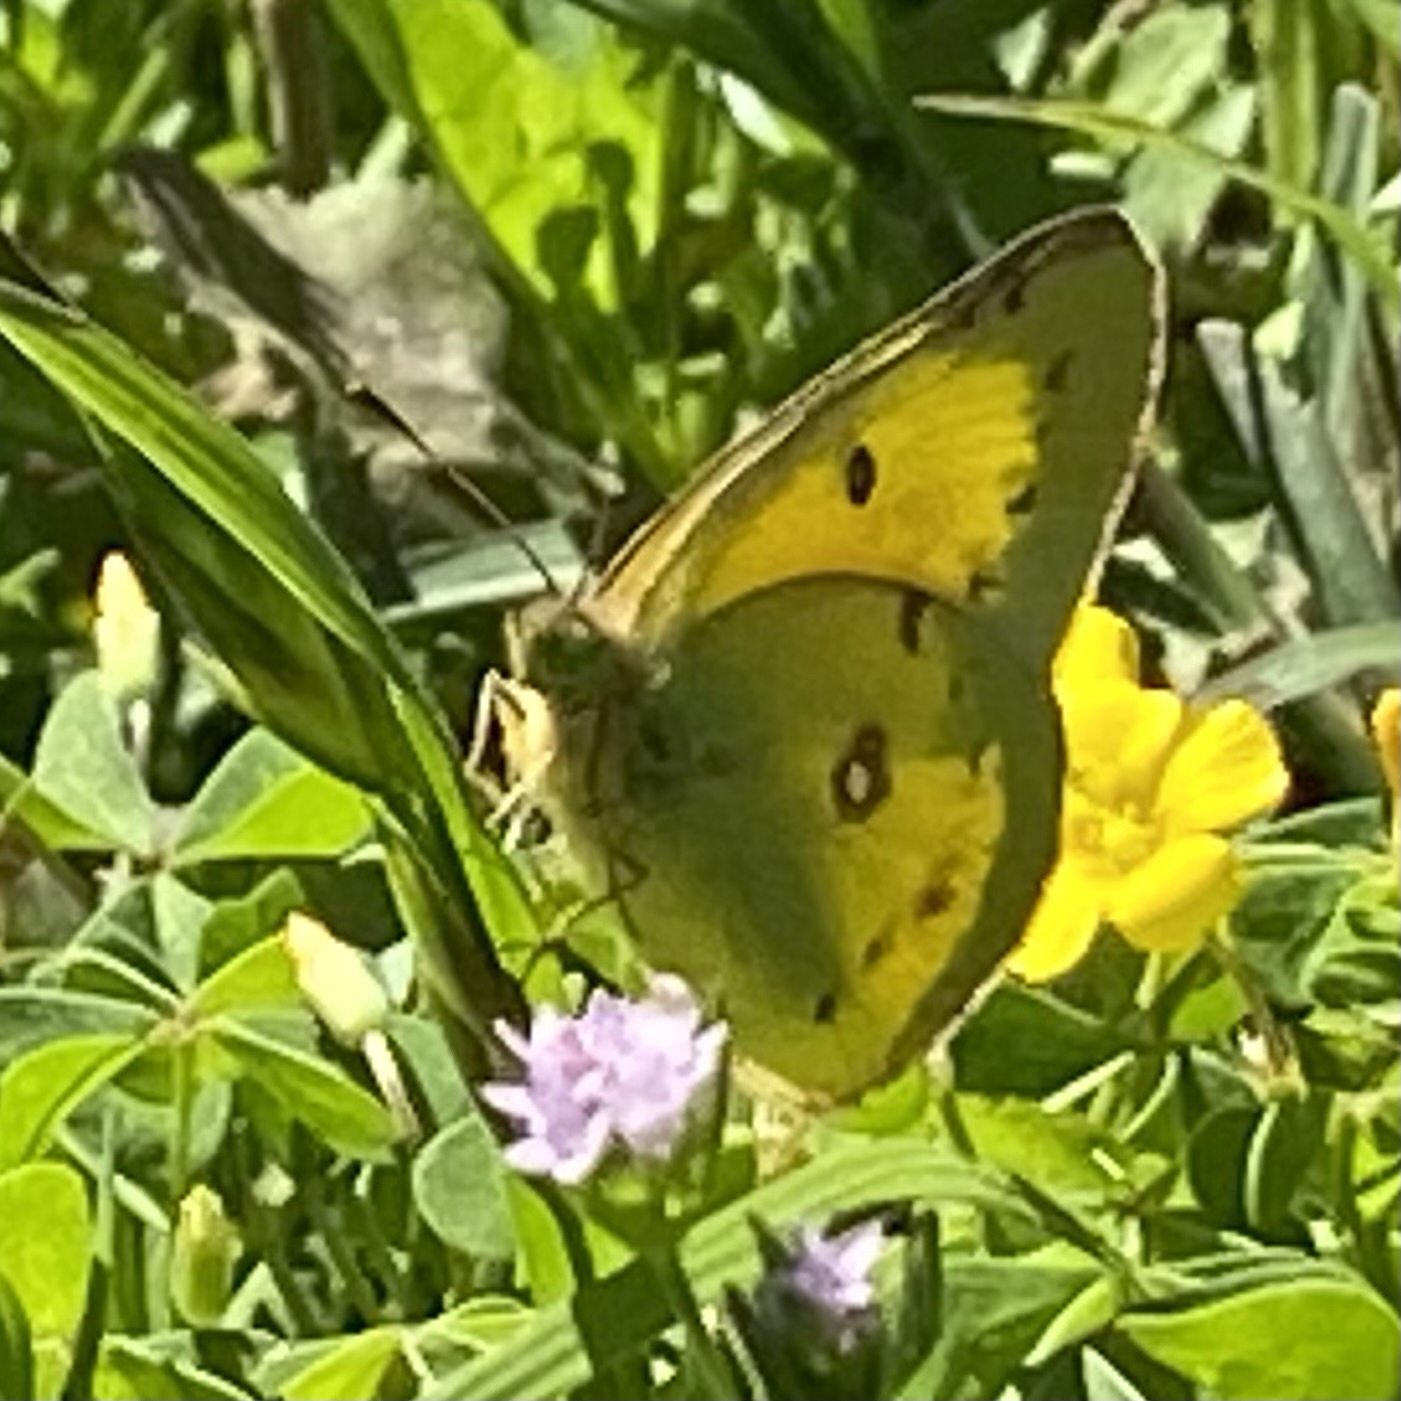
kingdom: Animalia
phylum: Arthropoda
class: Insecta
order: Lepidoptera
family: Pieridae
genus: Colias
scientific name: Colias eurytheme
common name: Alfalfa butterfly
